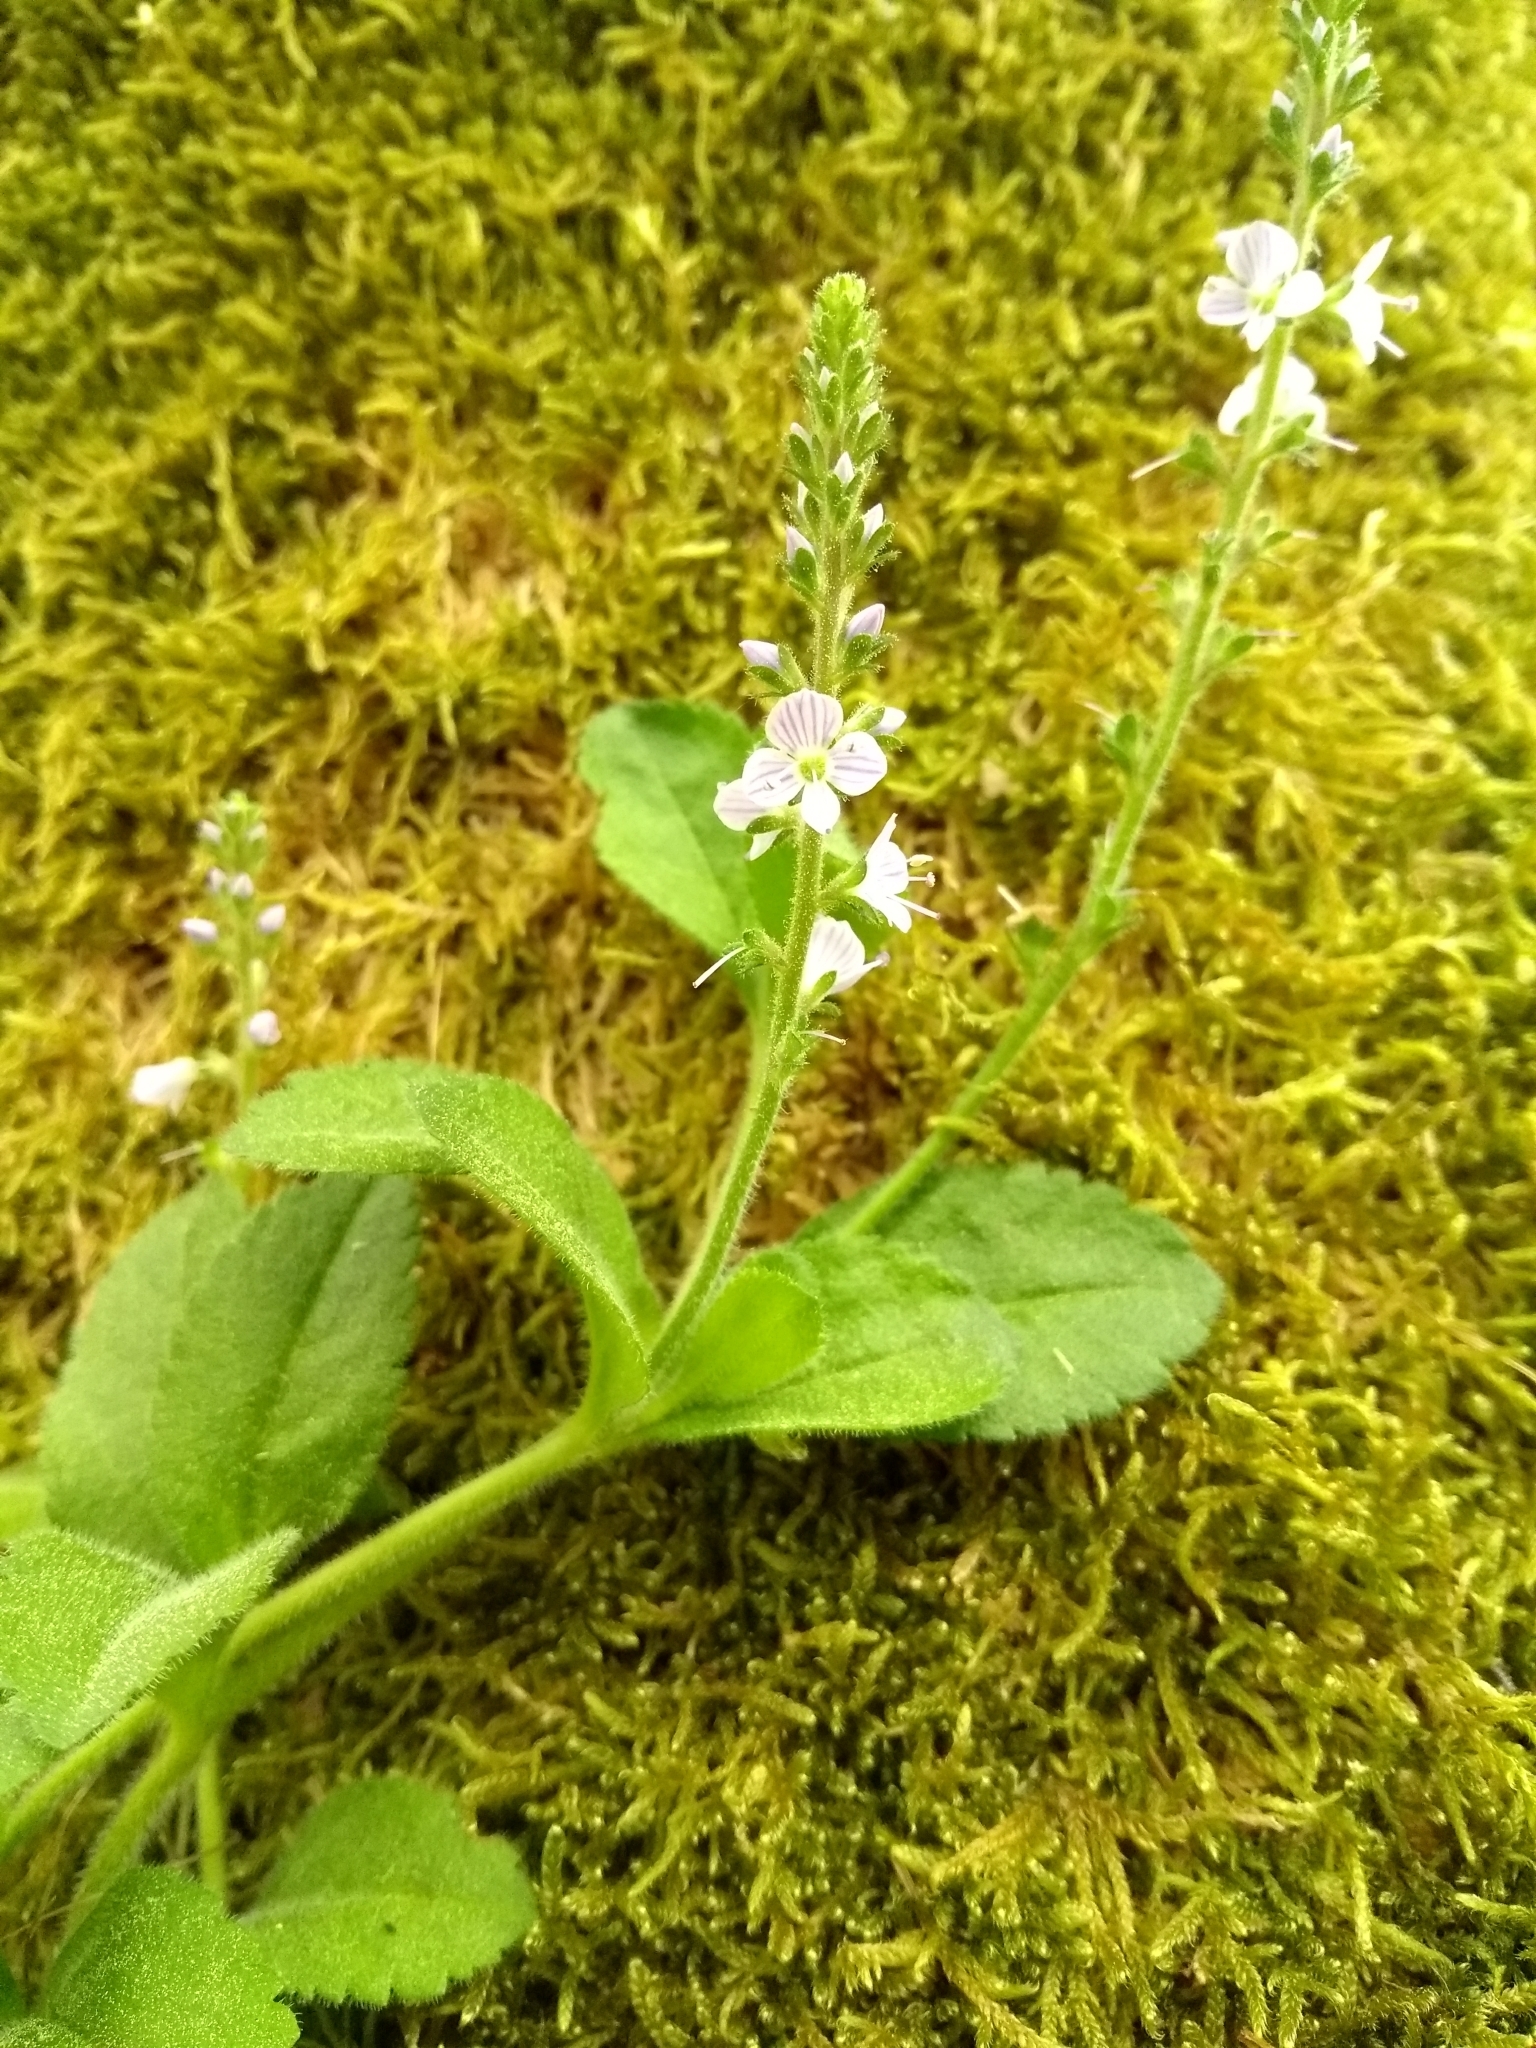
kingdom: Plantae
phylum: Tracheophyta
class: Magnoliopsida
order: Lamiales
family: Plantaginaceae
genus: Veronica
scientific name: Veronica officinalis
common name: Common speedwell
